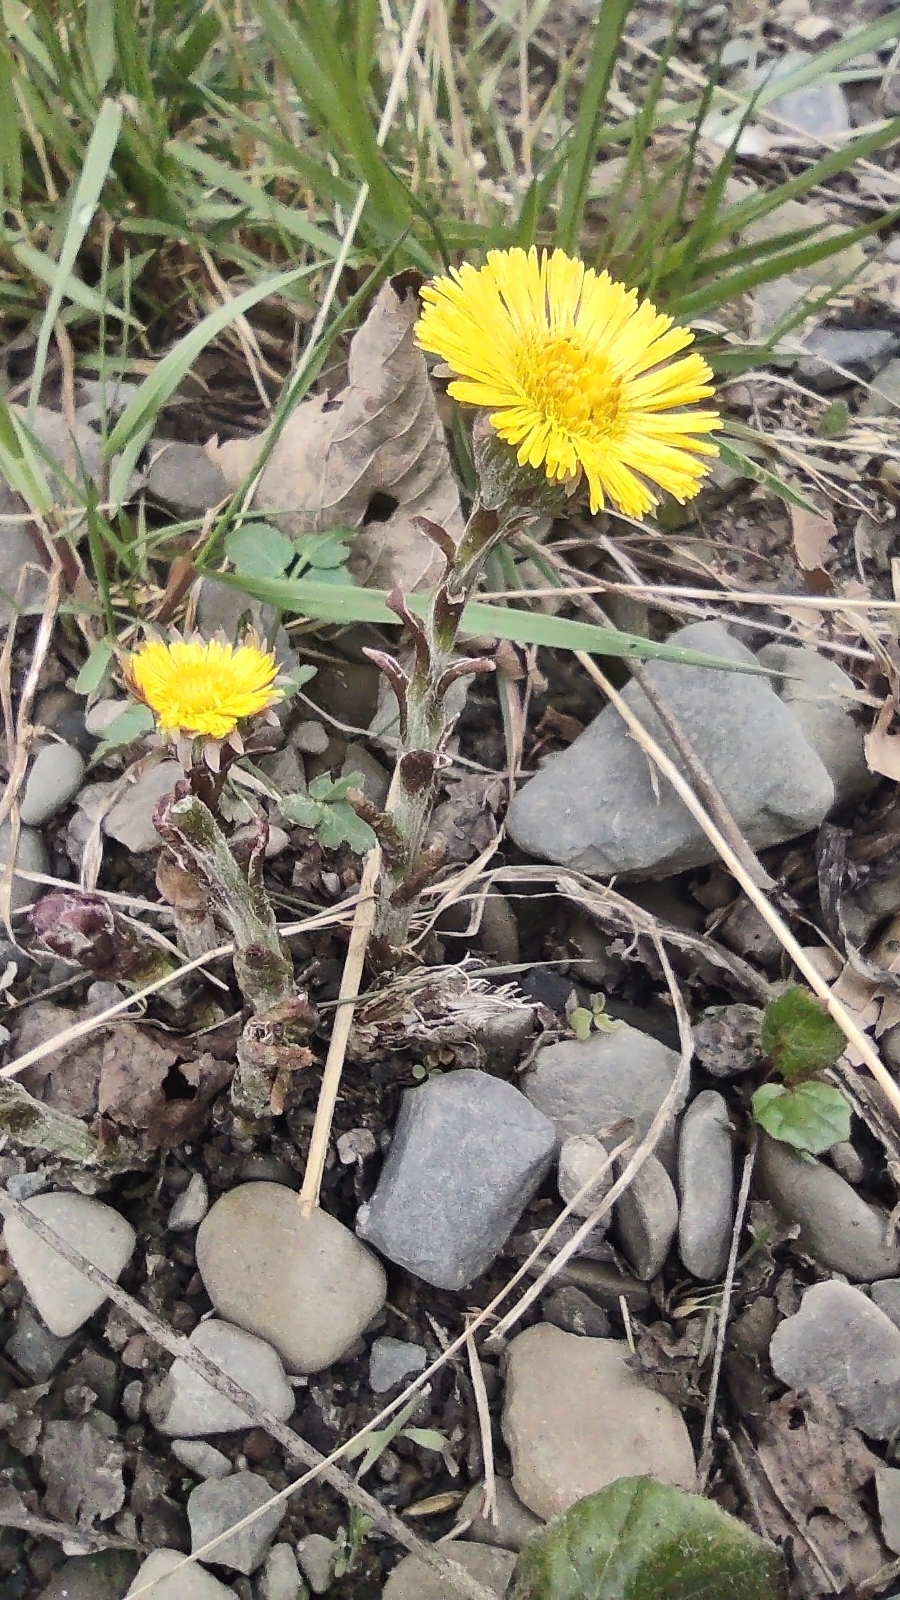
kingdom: Plantae
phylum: Tracheophyta
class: Magnoliopsida
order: Asterales
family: Asteraceae
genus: Tussilago
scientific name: Tussilago farfara
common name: Coltsfoot
